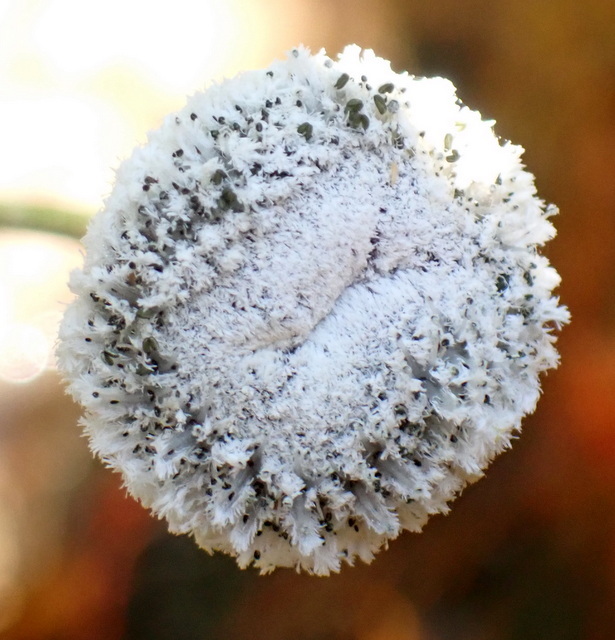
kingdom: Plantae
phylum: Tracheophyta
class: Liliopsida
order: Poales
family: Eriocaulaceae
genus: Eriocaulon
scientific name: Eriocaulon compressum
